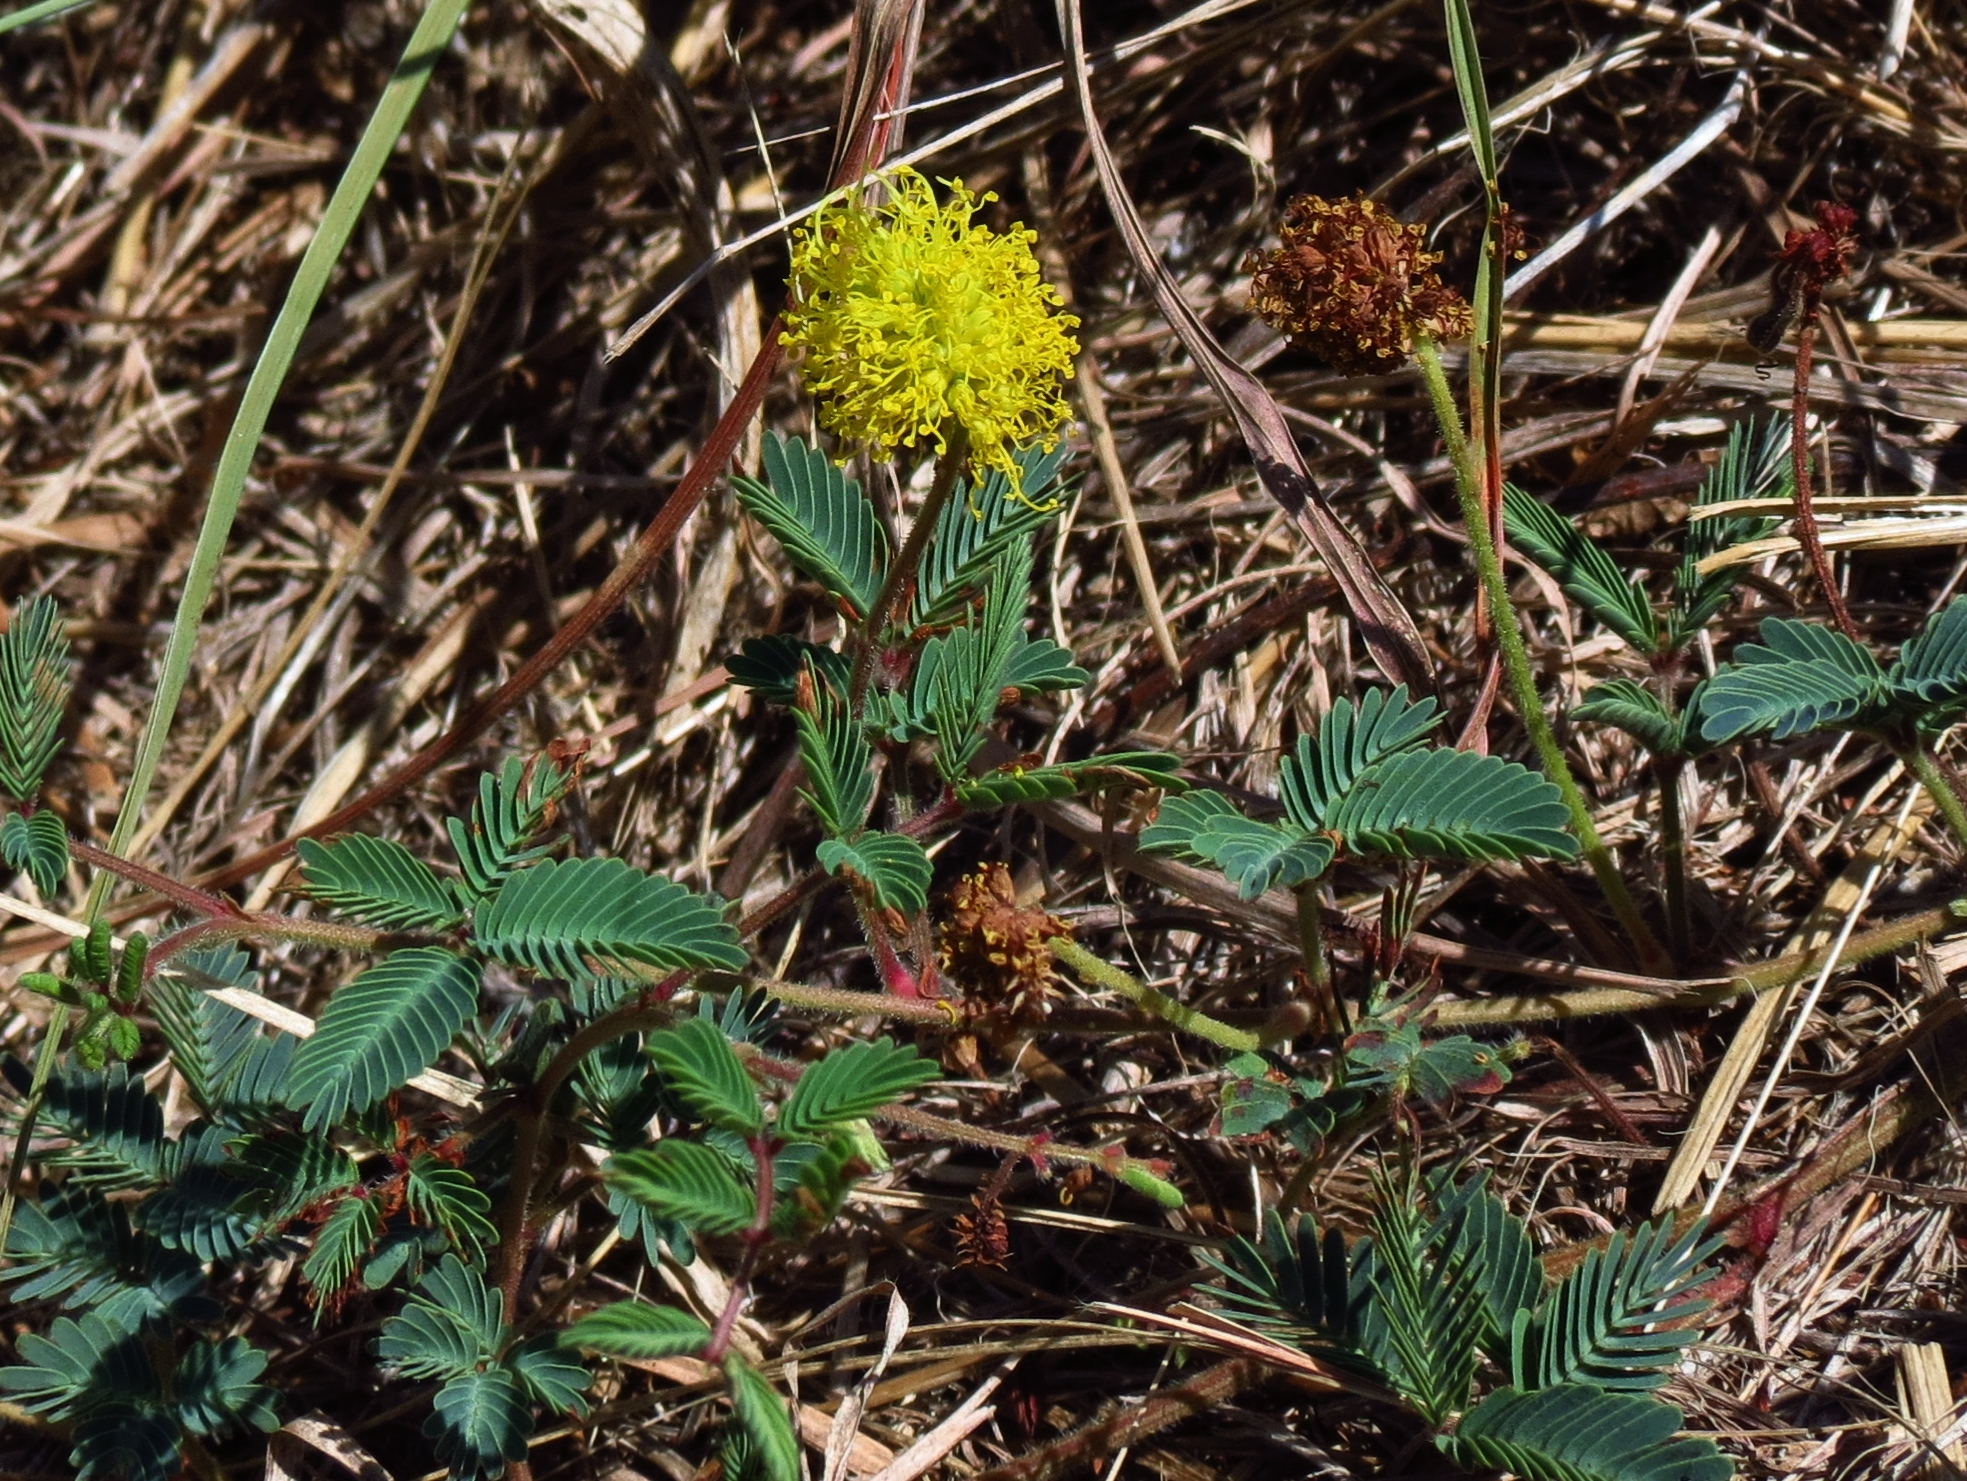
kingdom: Plantae
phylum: Tracheophyta
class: Magnoliopsida
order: Fabales
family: Fabaceae
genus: Neptunia
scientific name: Neptunia lutea
